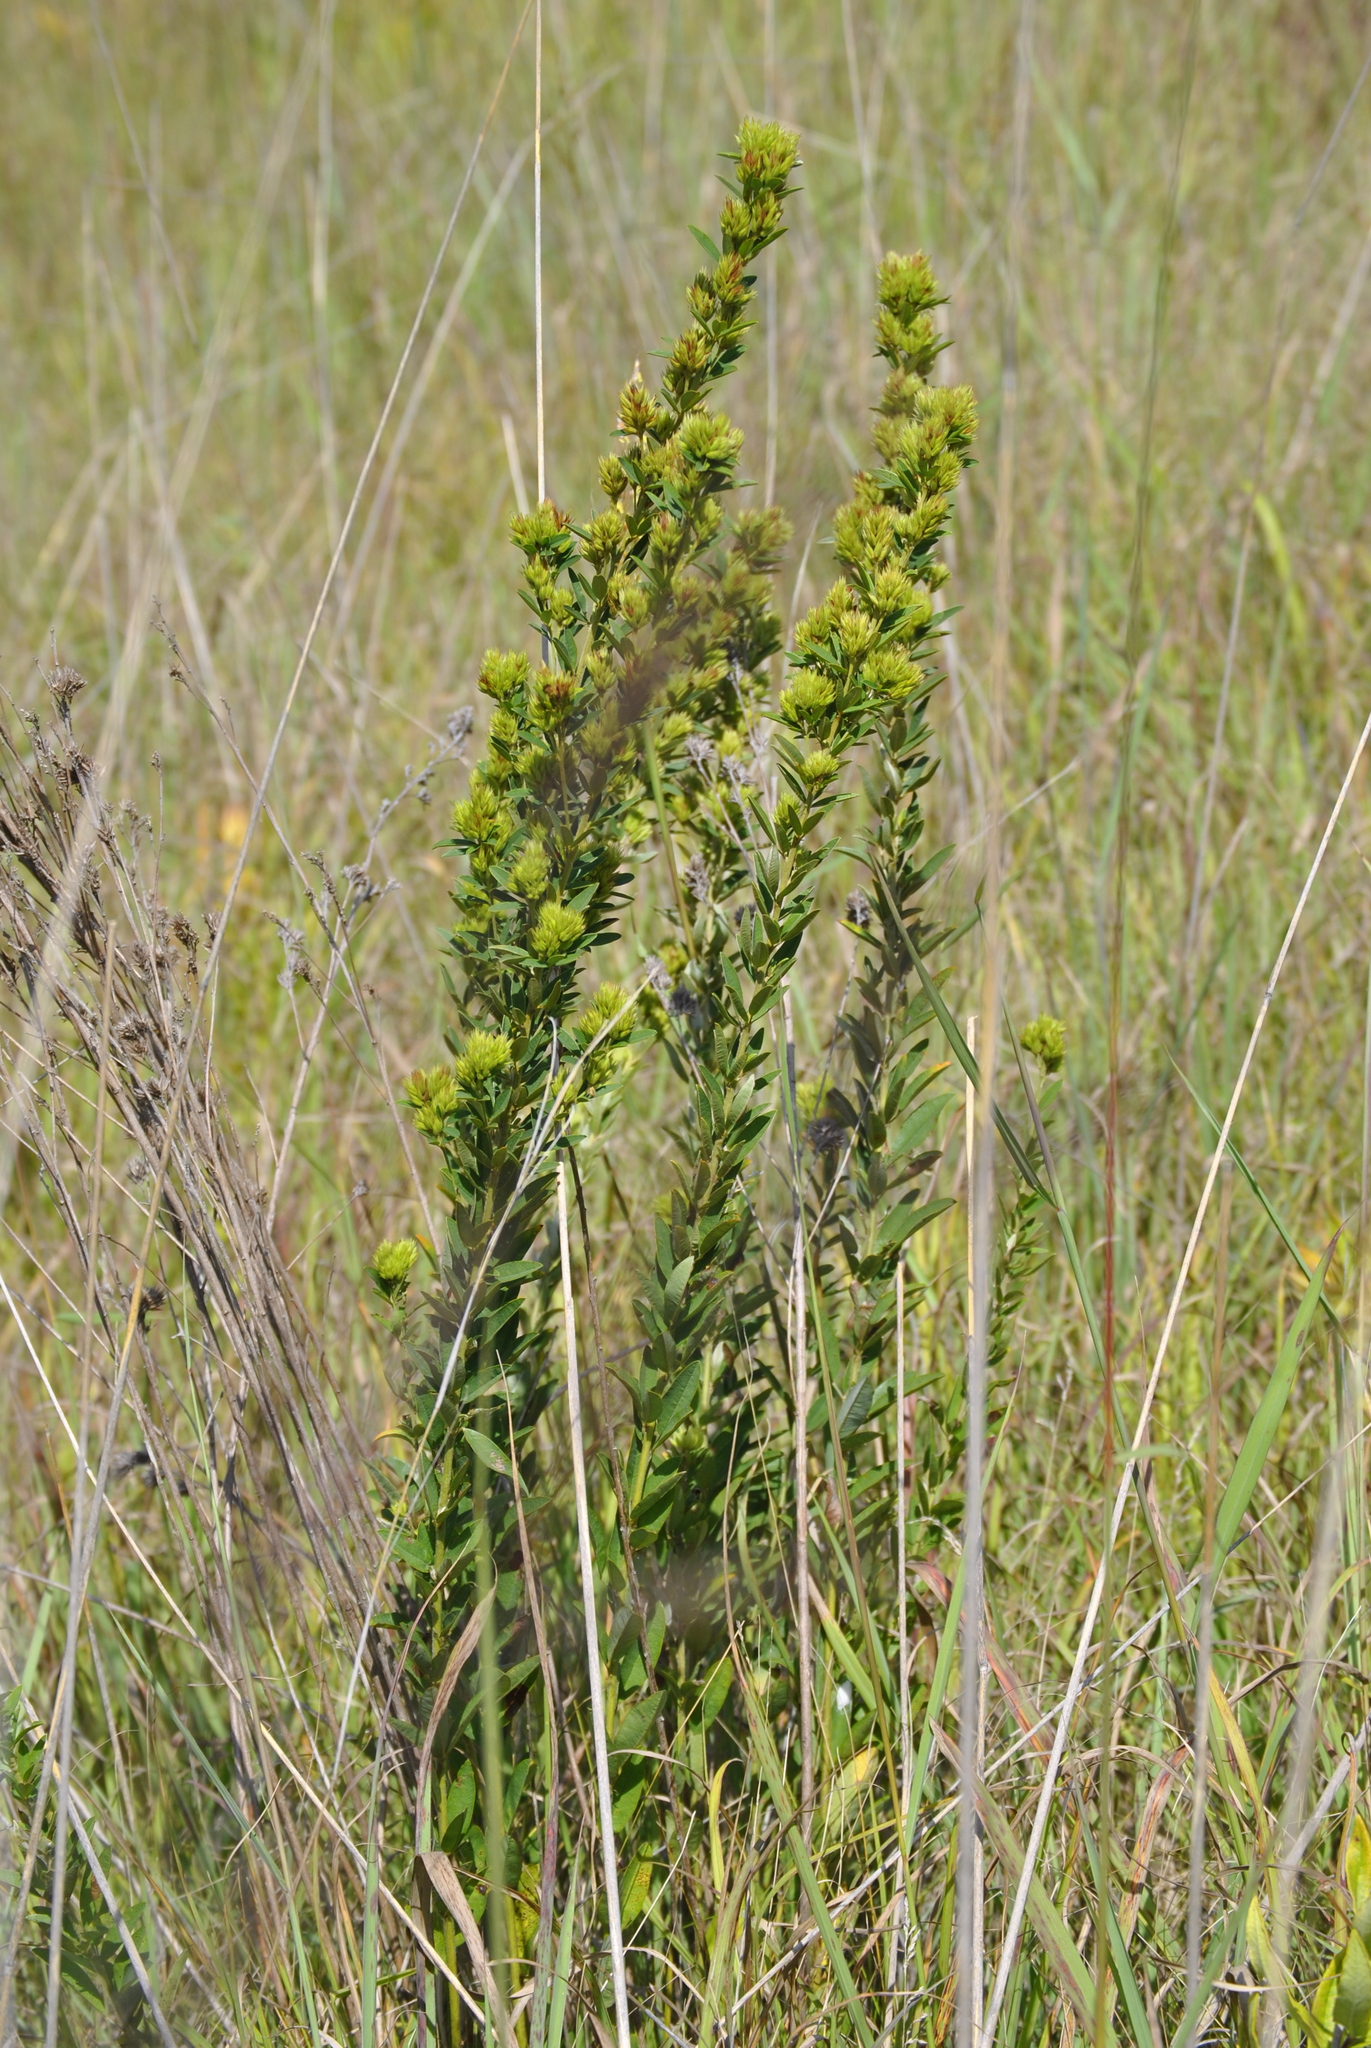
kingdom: Plantae
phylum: Tracheophyta
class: Magnoliopsida
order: Fabales
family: Fabaceae
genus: Lespedeza
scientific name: Lespedeza capitata
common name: Dusty clover
